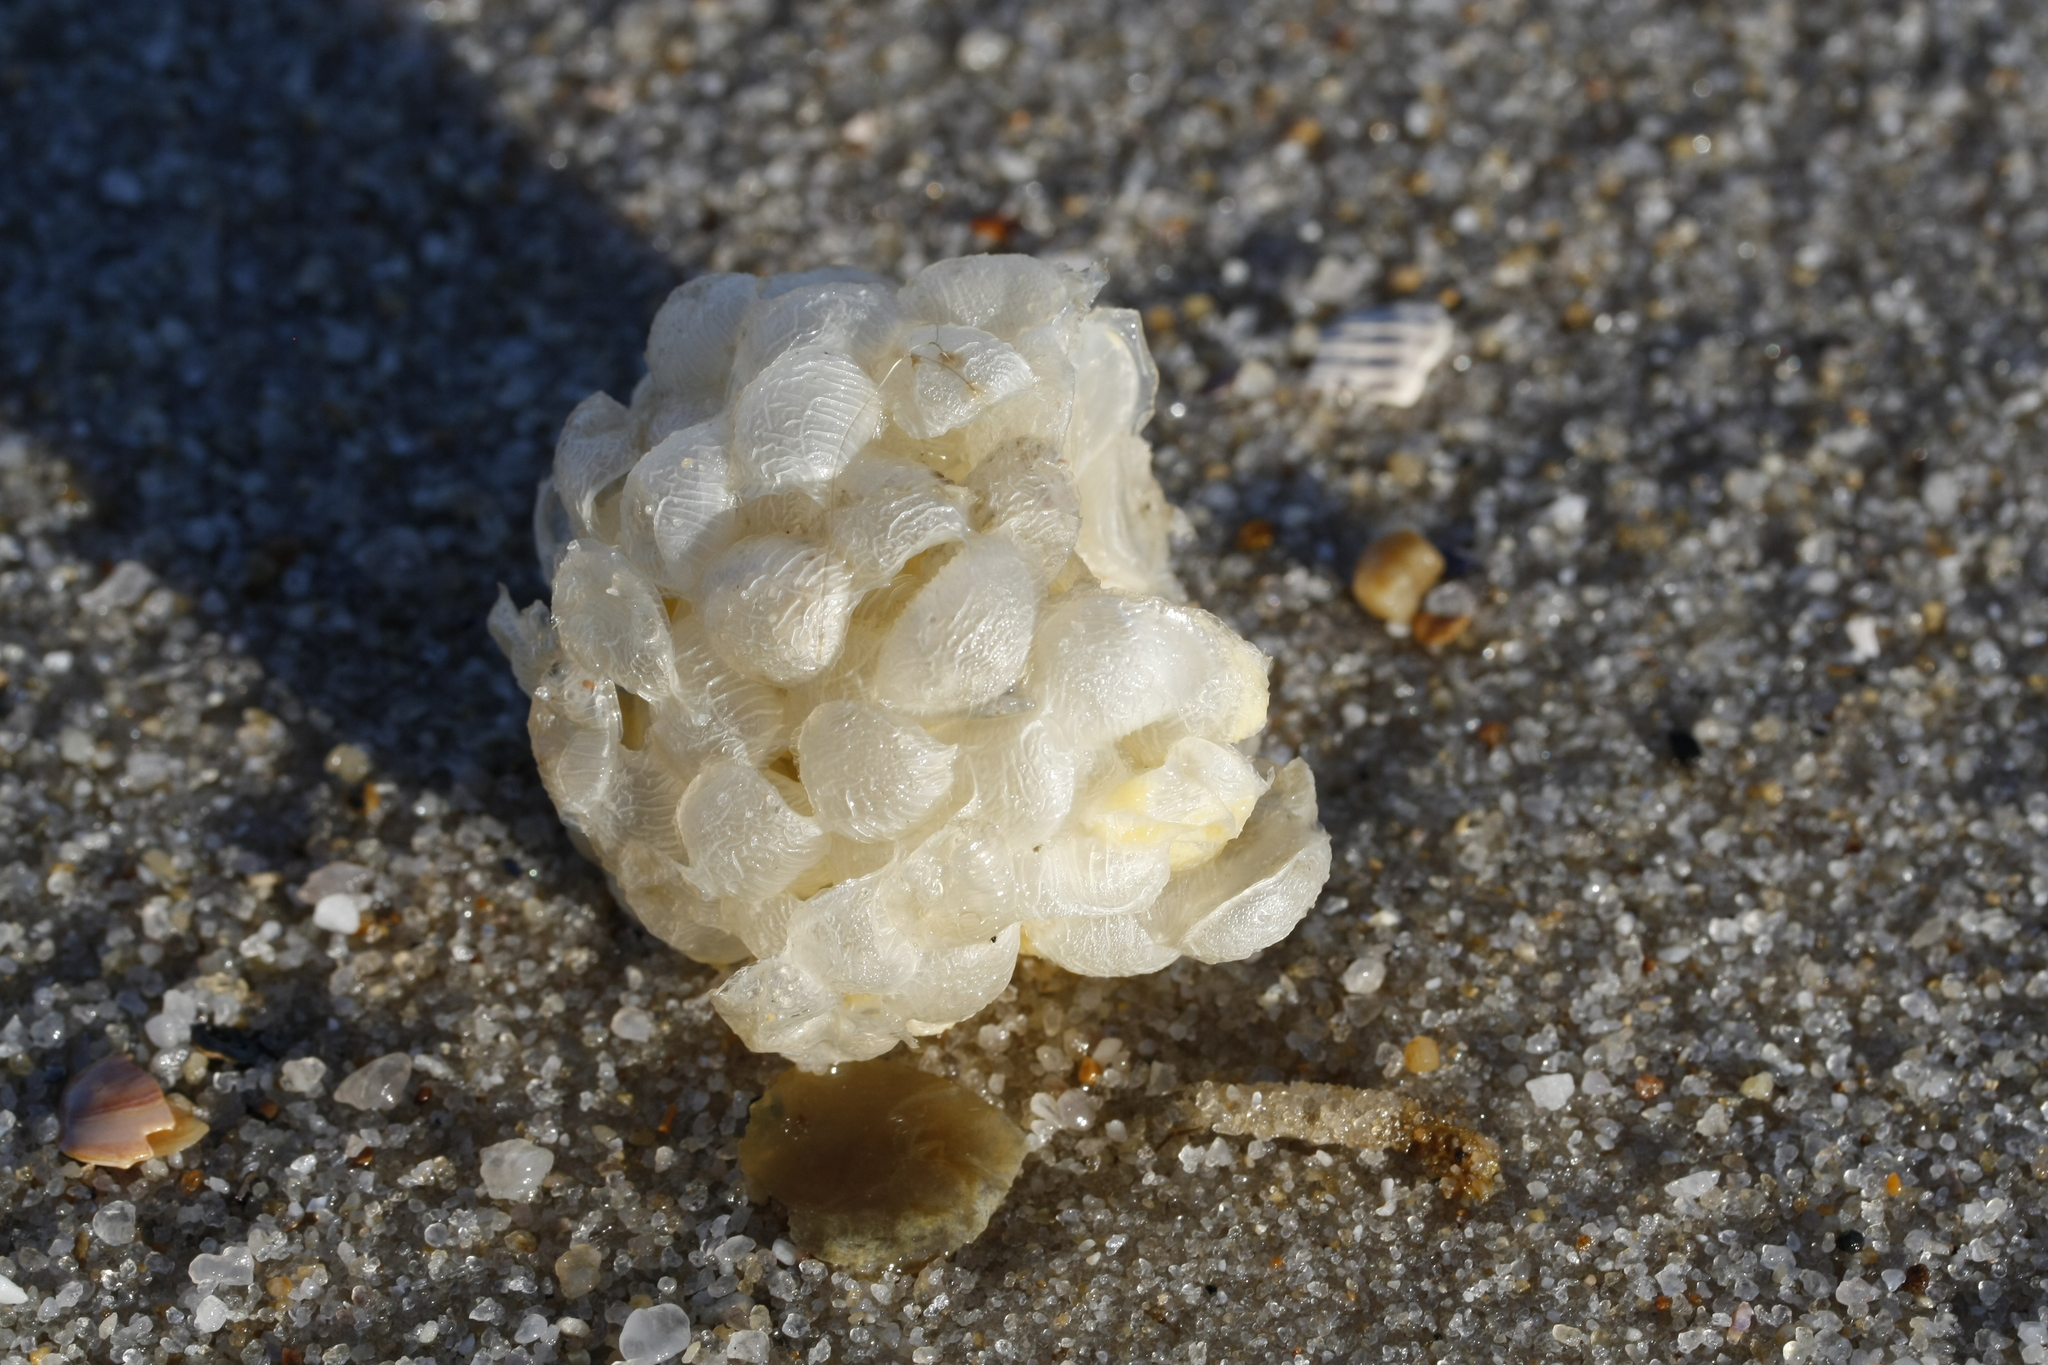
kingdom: Animalia
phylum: Mollusca
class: Gastropoda
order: Neogastropoda
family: Buccinidae
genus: Buccinum
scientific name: Buccinum undatum
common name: Common whelk
